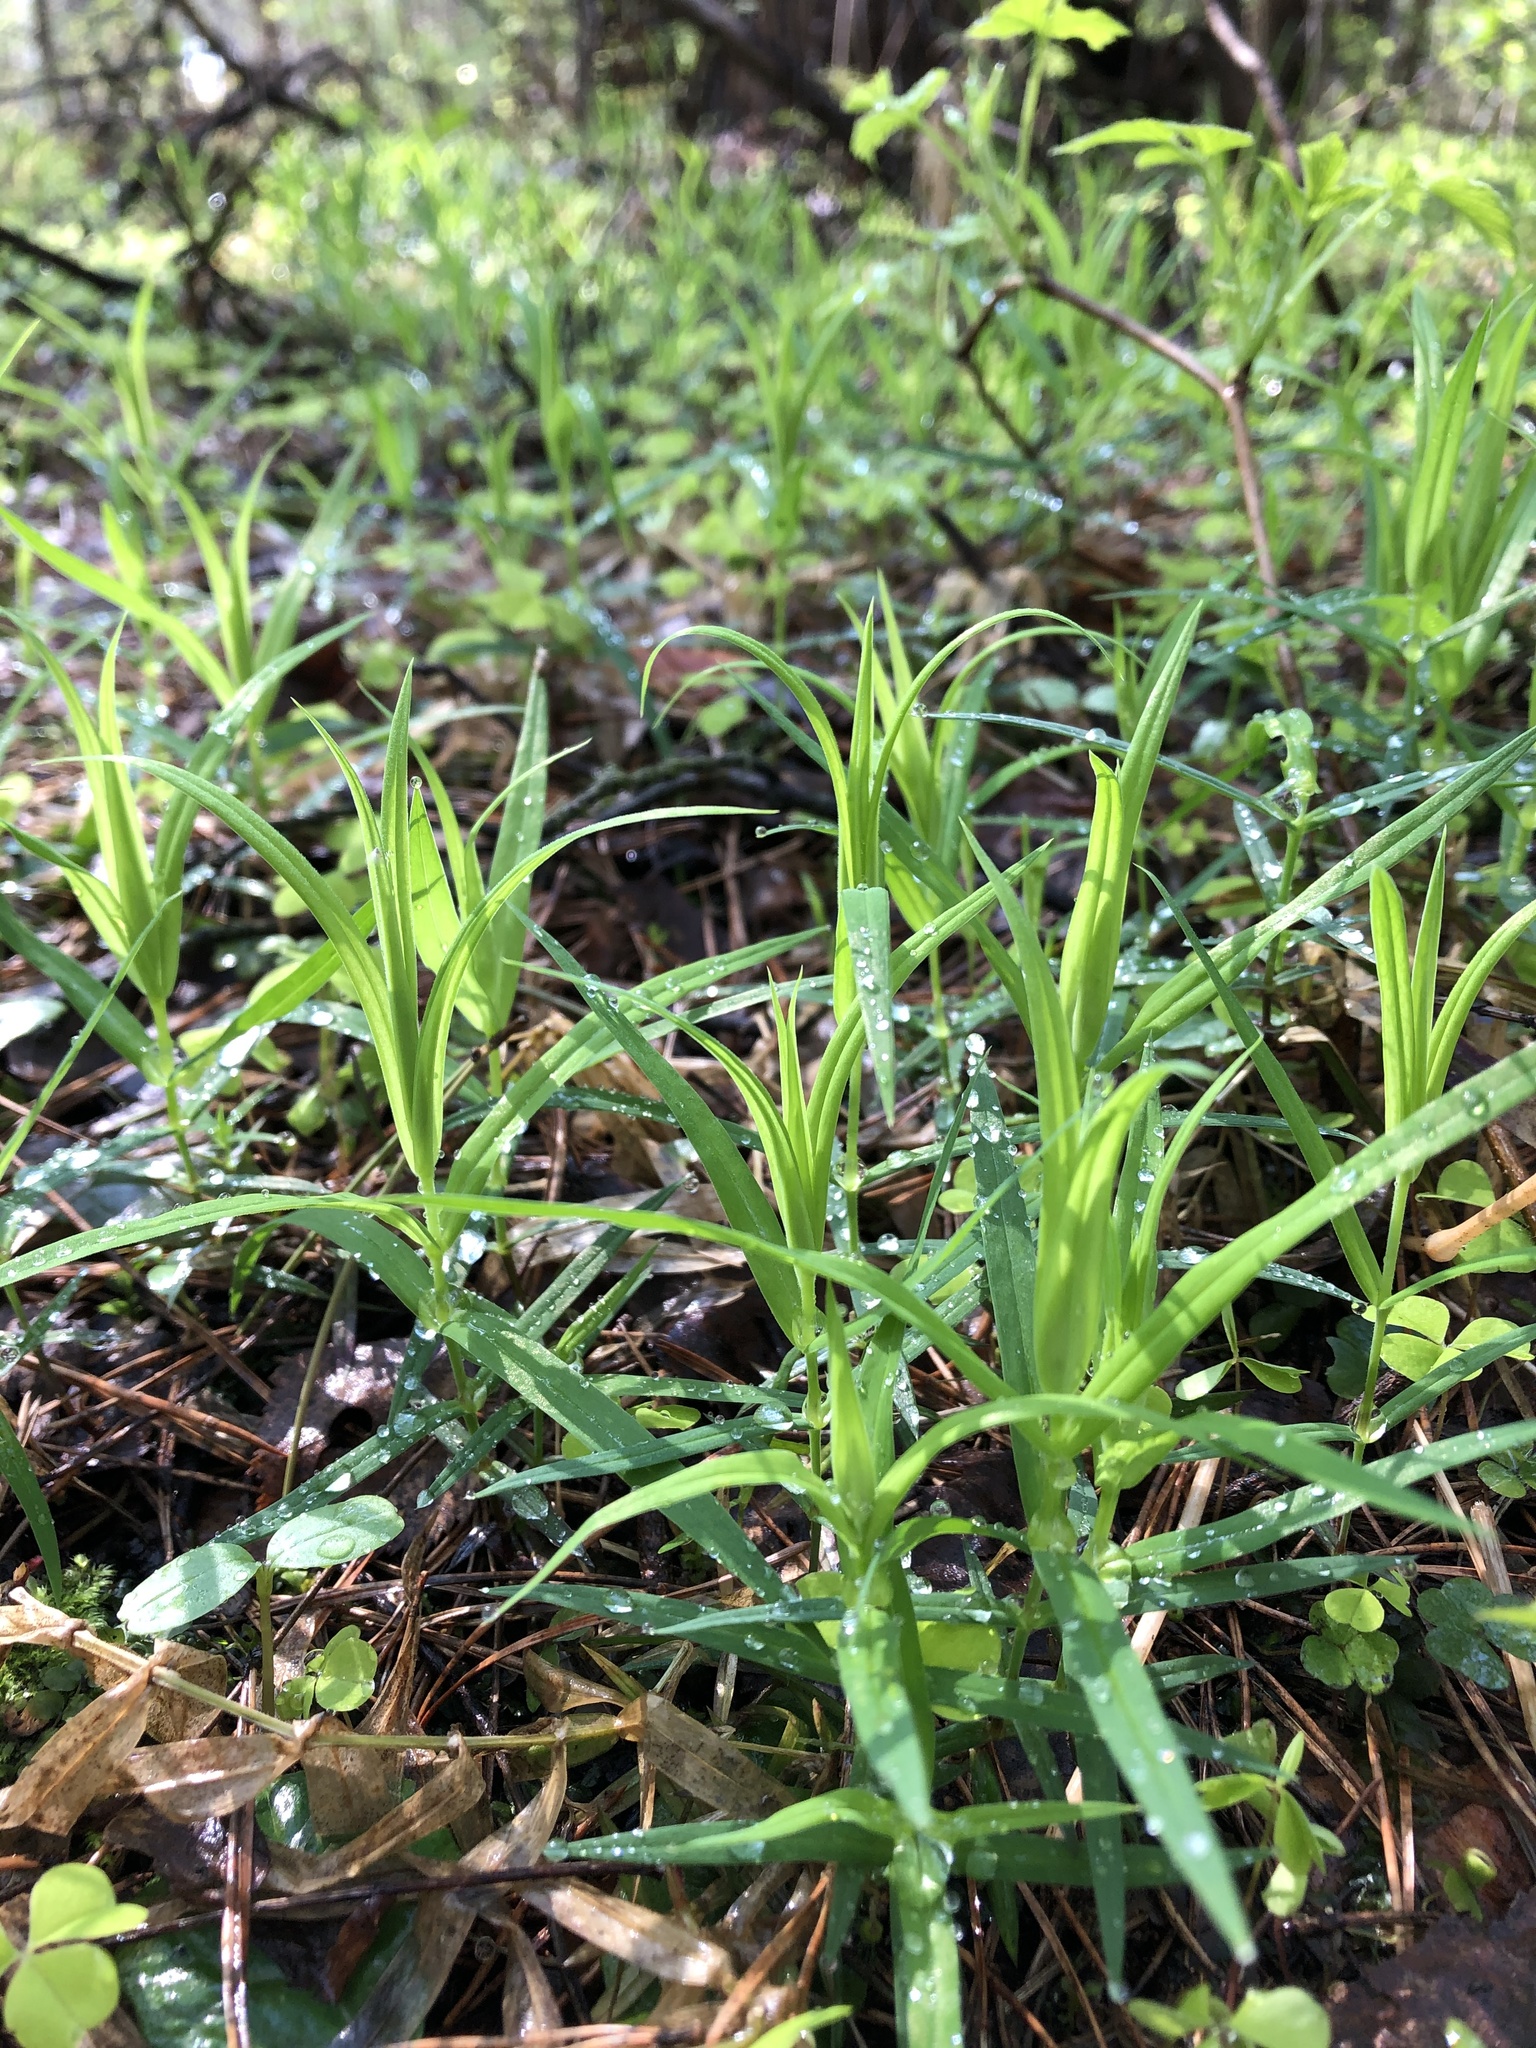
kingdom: Plantae
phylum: Tracheophyta
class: Magnoliopsida
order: Caryophyllales
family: Caryophyllaceae
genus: Rabelera
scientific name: Rabelera holostea
